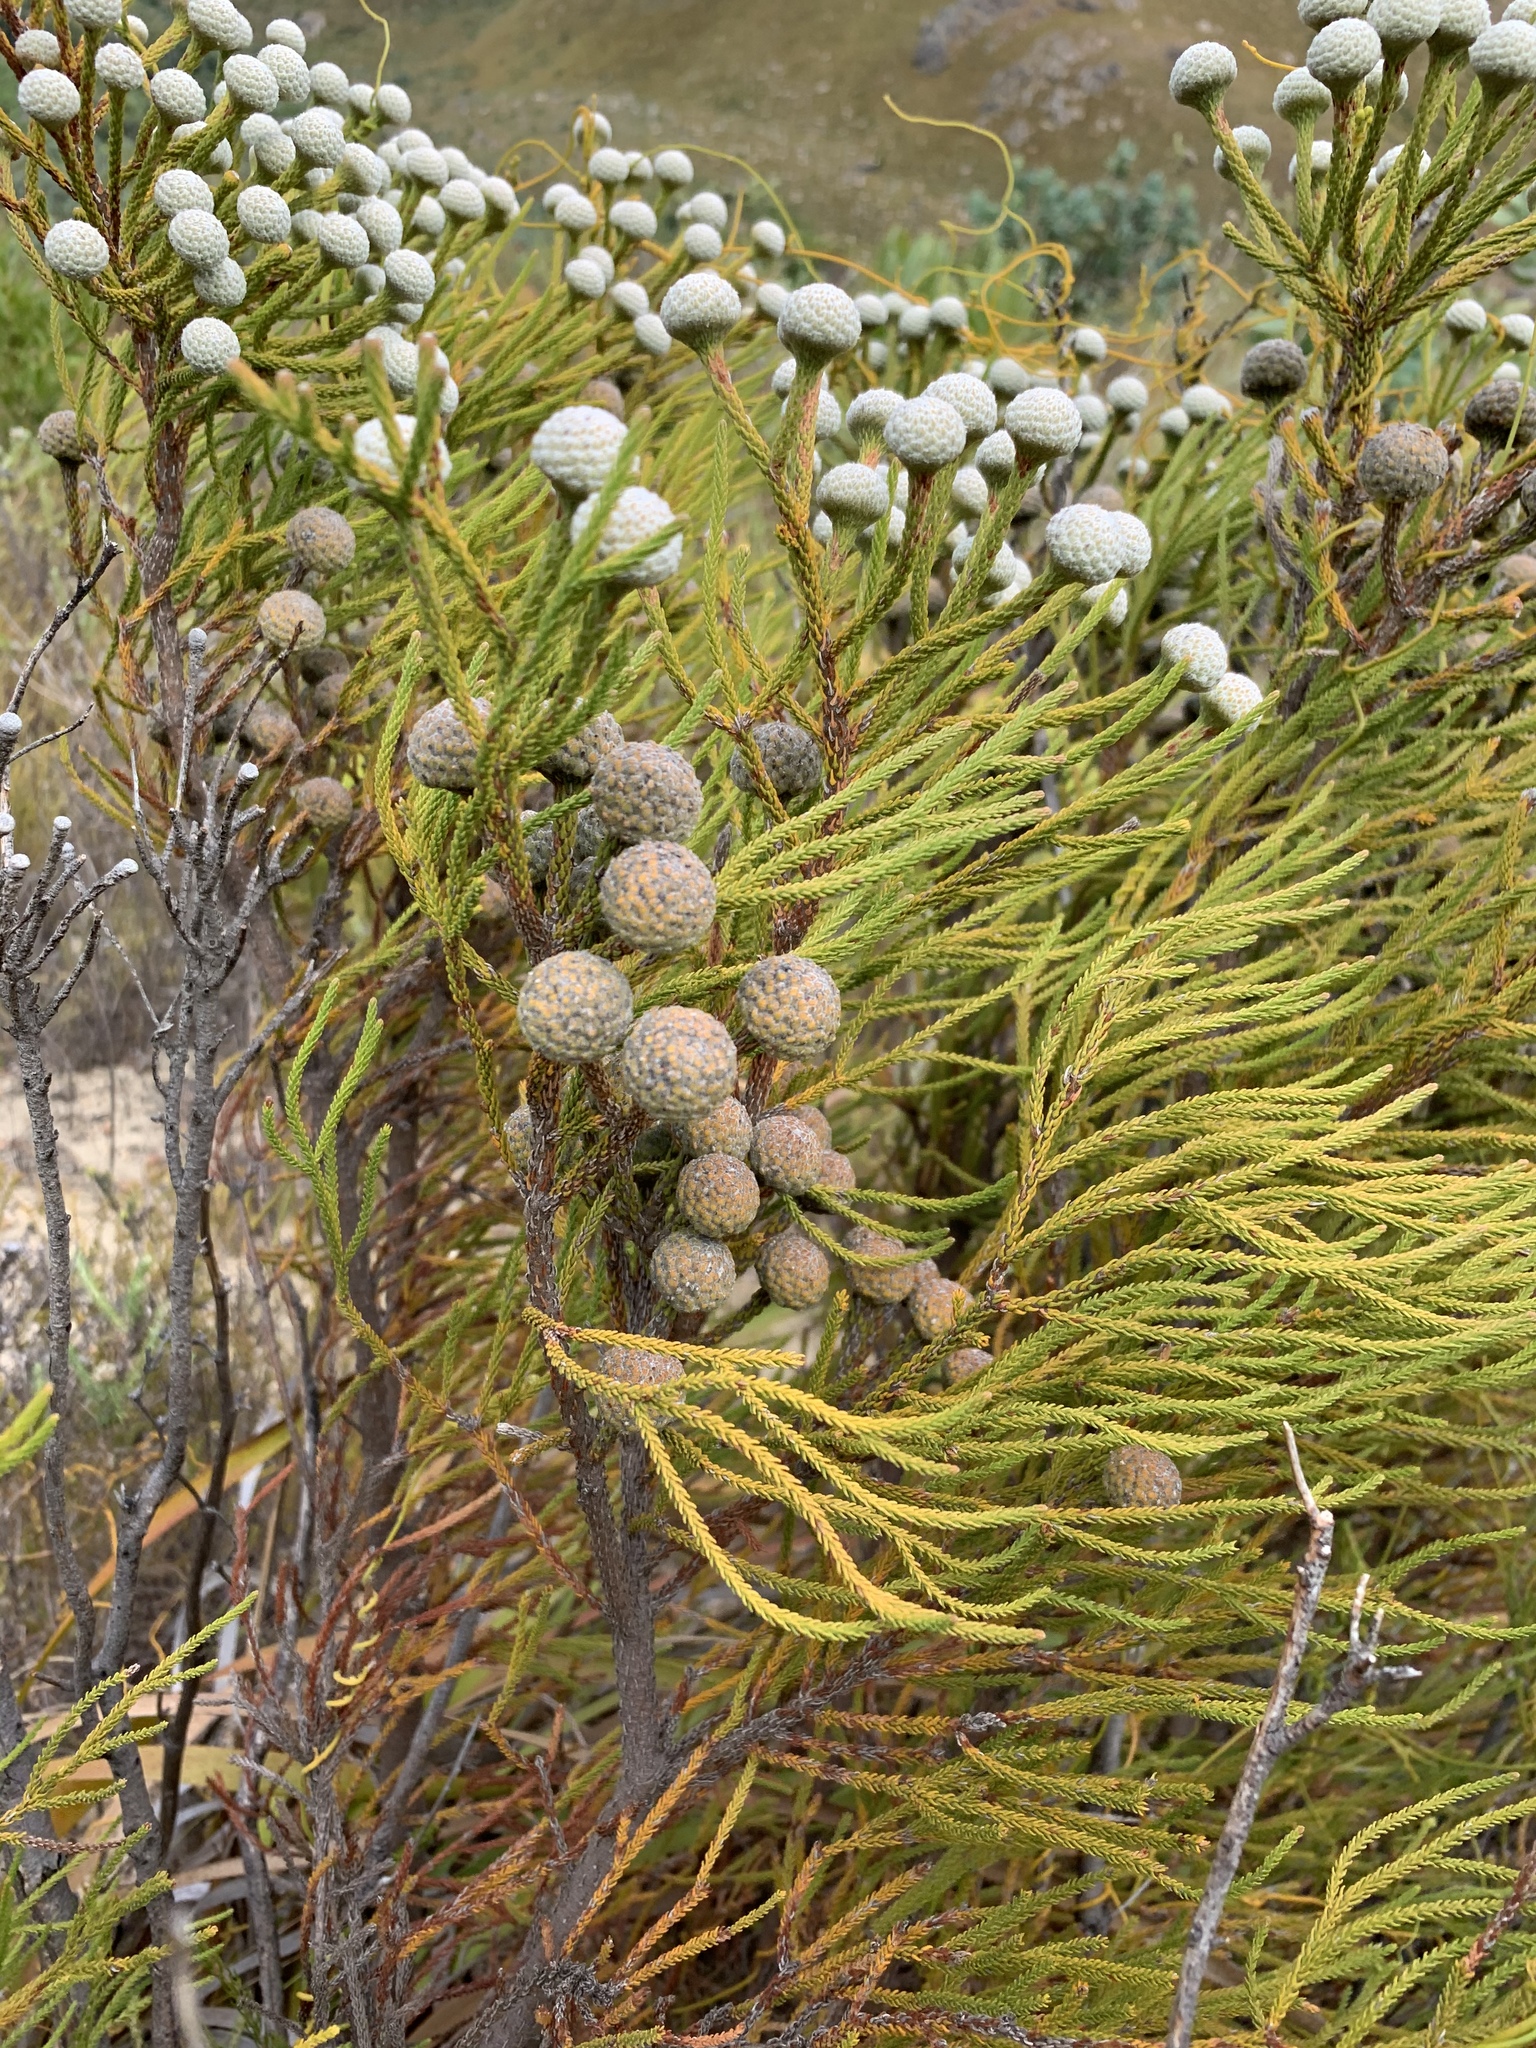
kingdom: Plantae
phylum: Tracheophyta
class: Magnoliopsida
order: Bruniales
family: Bruniaceae
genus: Brunia
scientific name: Brunia noduliflora
